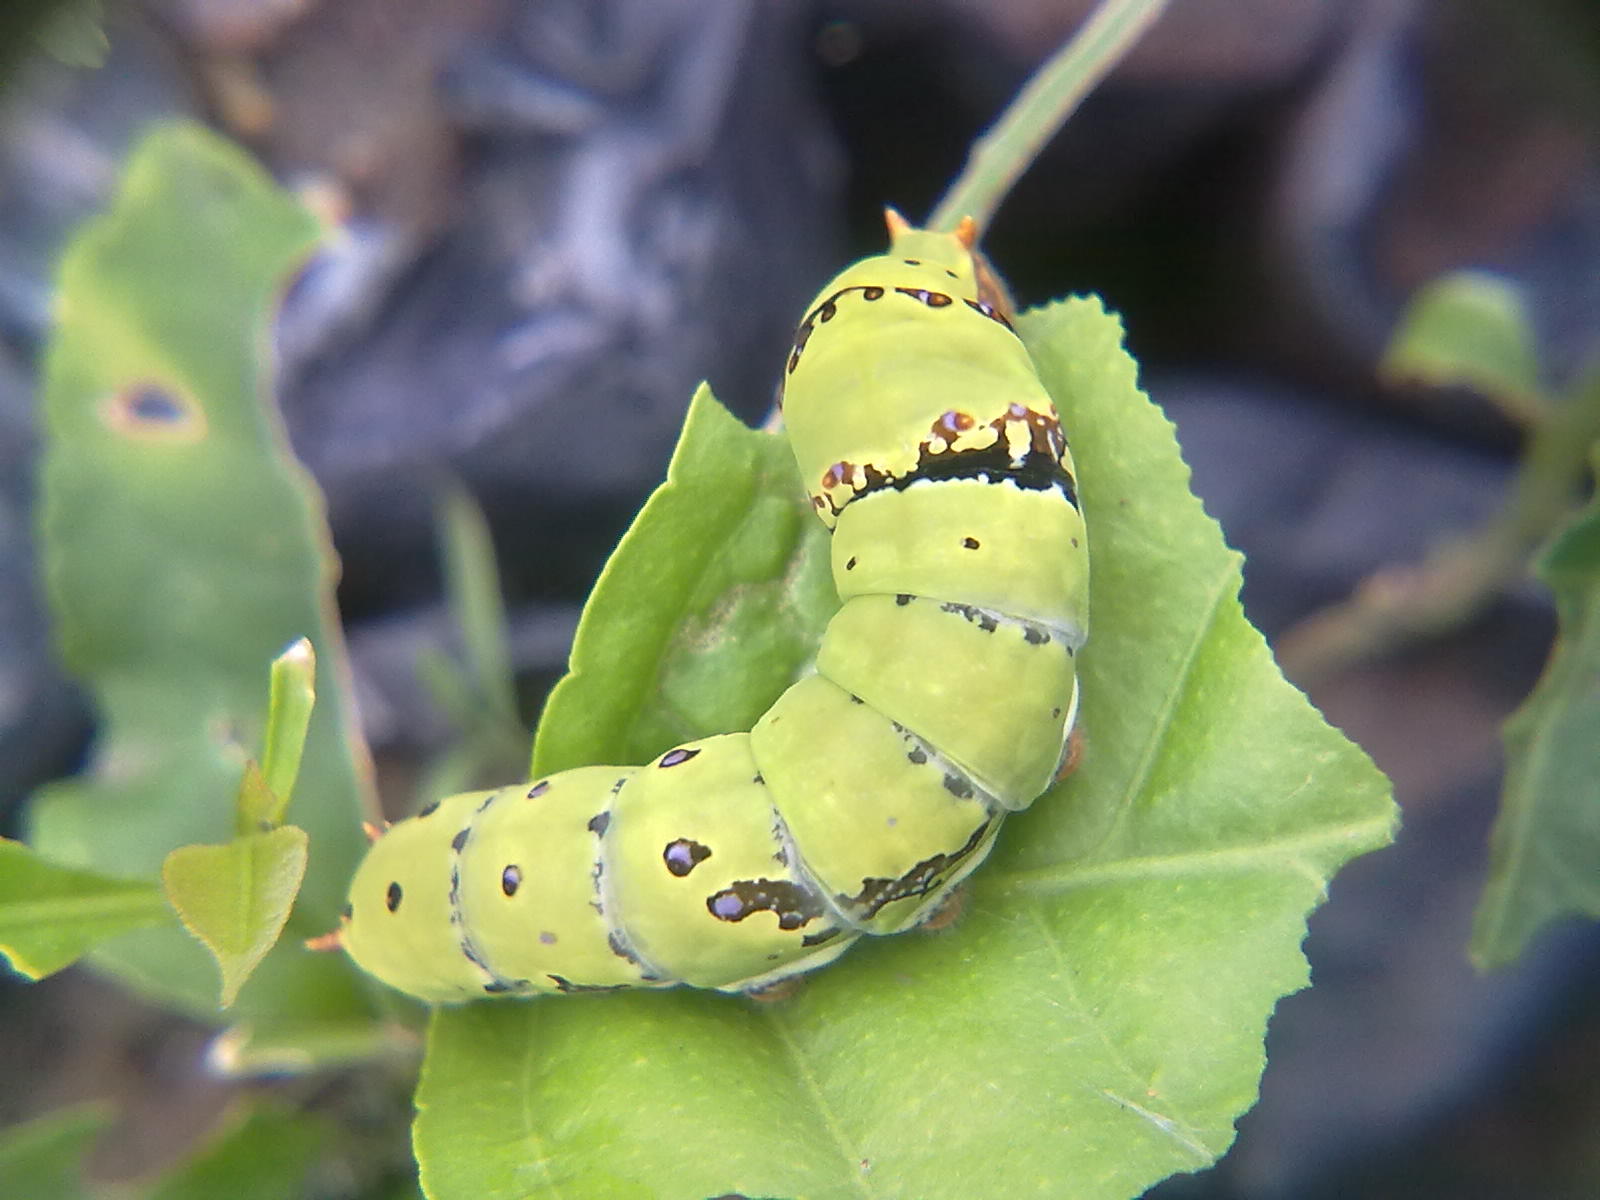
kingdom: Animalia
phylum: Arthropoda
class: Insecta
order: Lepidoptera
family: Papilionidae
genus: Papilio
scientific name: Papilio demoleus
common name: Lime butterfly
